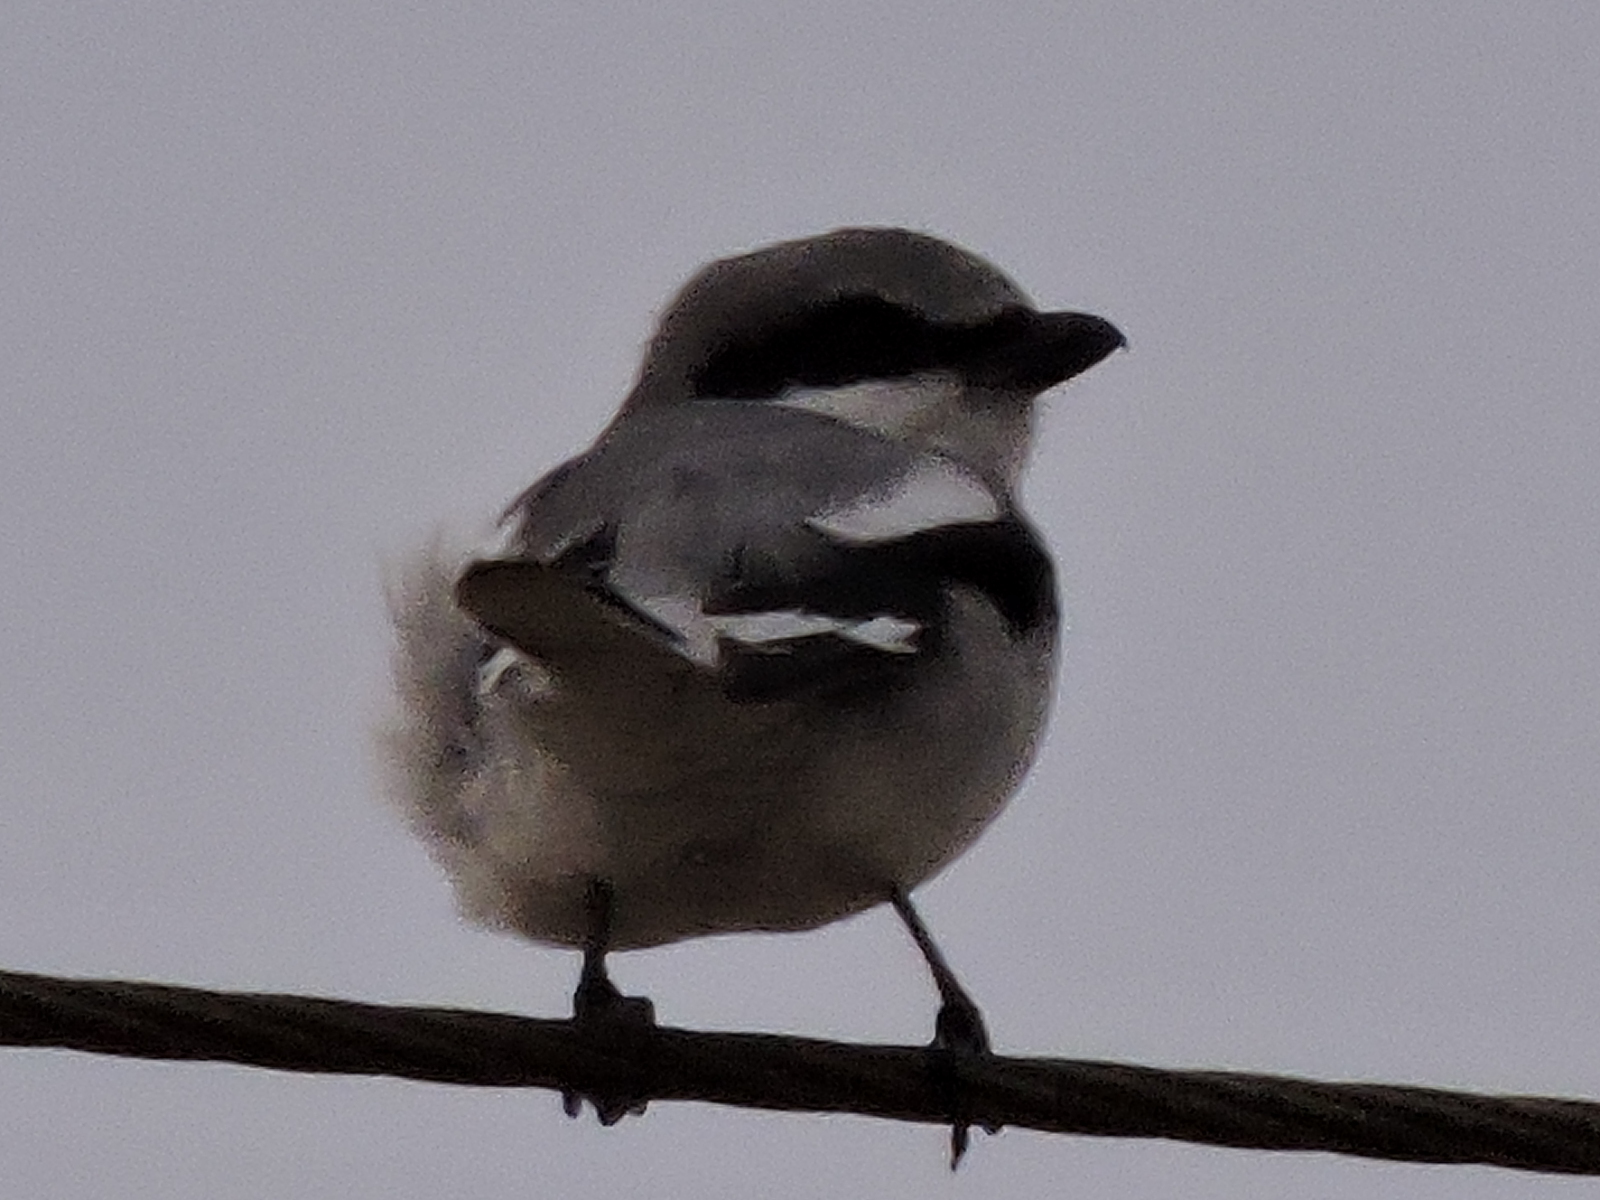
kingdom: Animalia
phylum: Chordata
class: Aves
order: Passeriformes
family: Laniidae
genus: Lanius
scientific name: Lanius ludovicianus
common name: Loggerhead shrike
